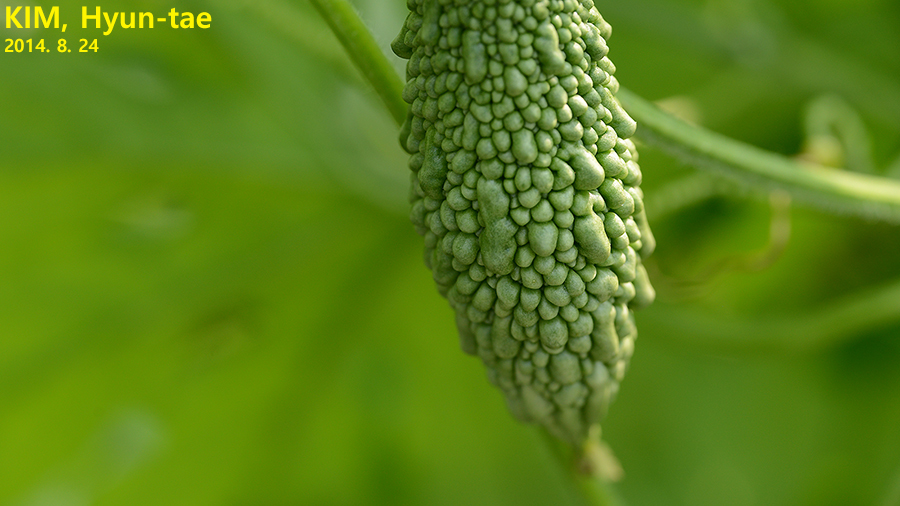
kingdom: Plantae
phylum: Tracheophyta
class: Magnoliopsida
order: Cucurbitales
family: Cucurbitaceae
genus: Momordica
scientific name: Momordica charantia
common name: Balsampear
